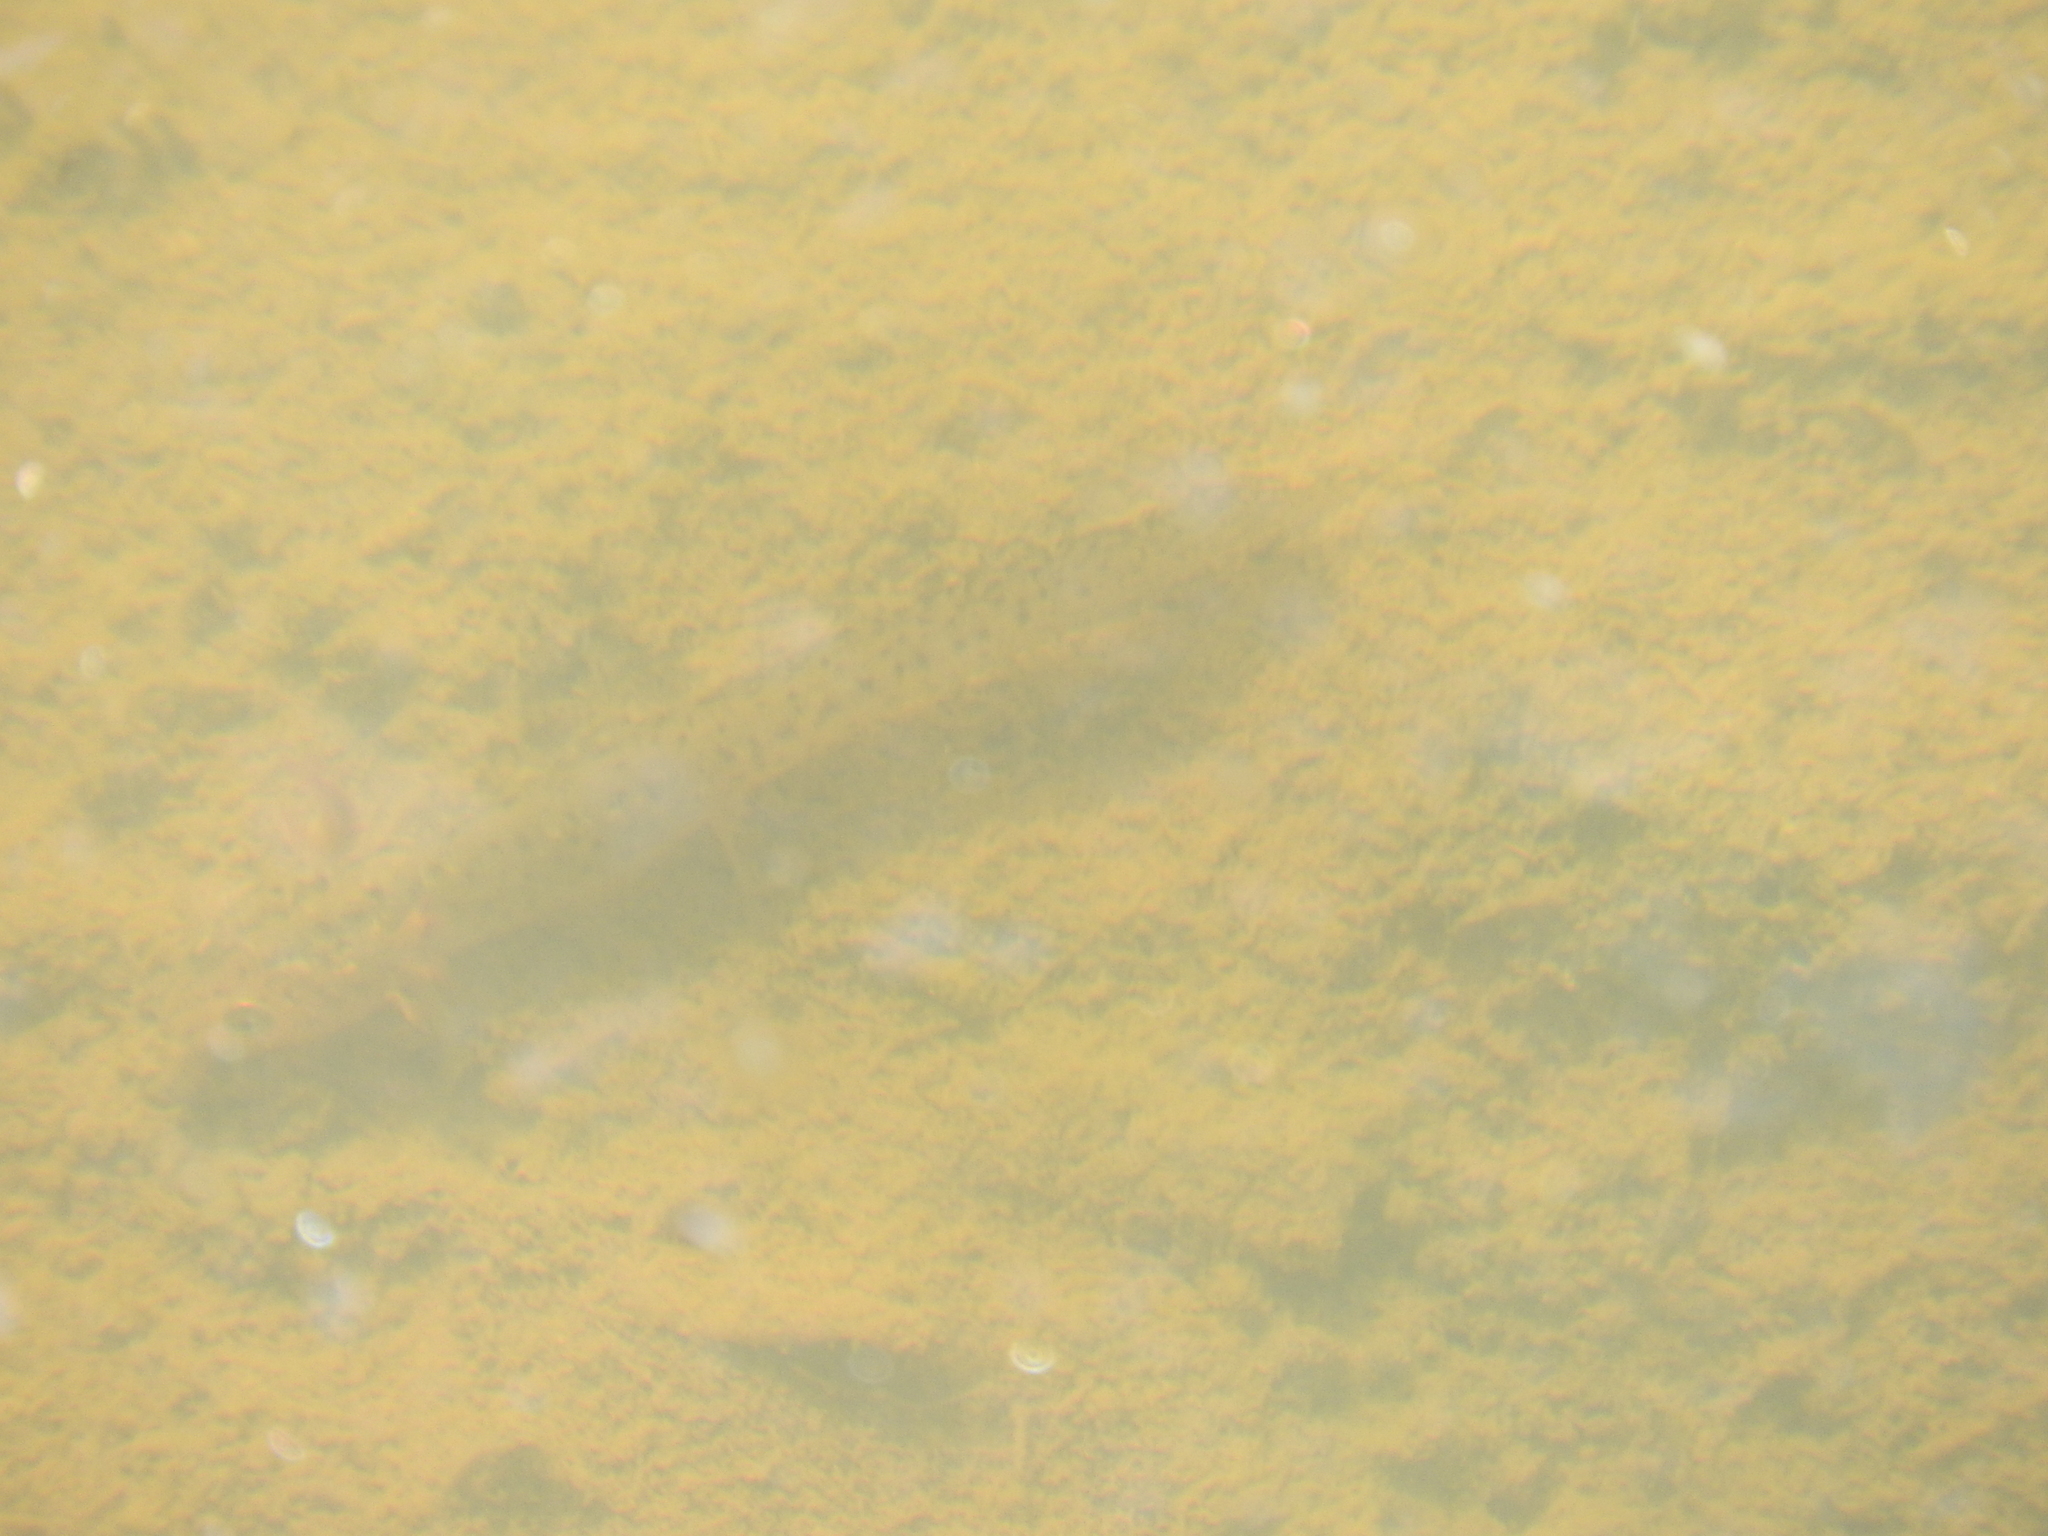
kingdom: Animalia
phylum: Chordata
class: Amphibia
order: Caudata
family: Salamandridae
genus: Ichthyosaura
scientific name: Ichthyosaura alpestris
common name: Alpine newt
